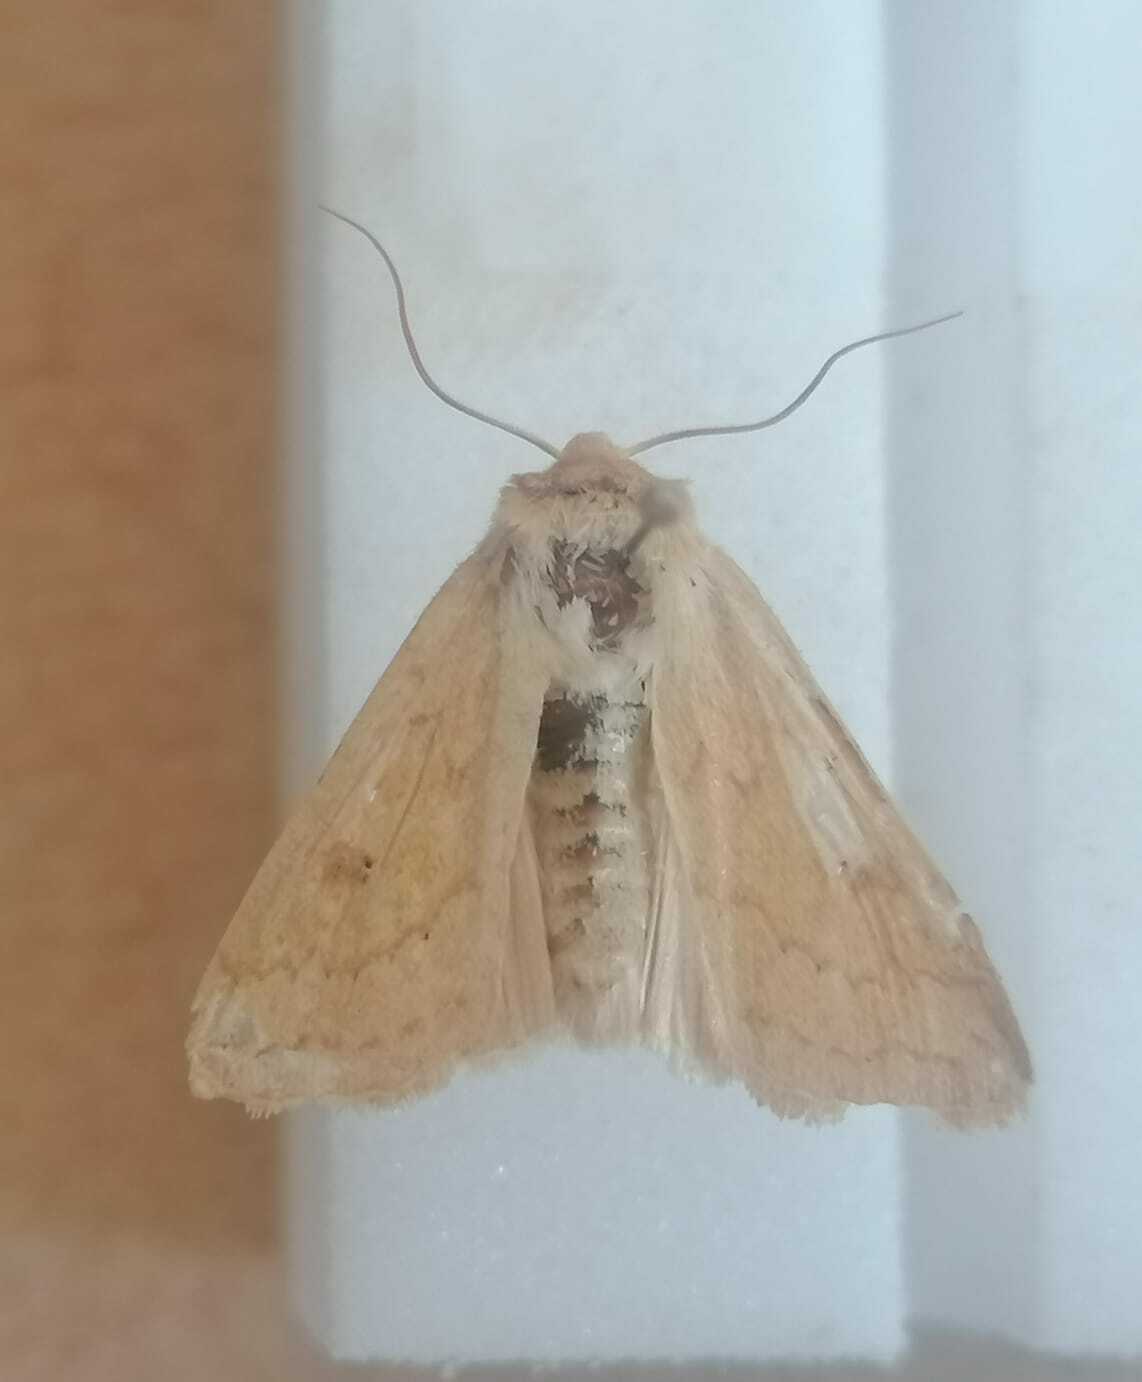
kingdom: Animalia
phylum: Arthropoda
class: Insecta
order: Lepidoptera
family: Noctuidae
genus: Mythimna
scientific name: Mythimna vitellina
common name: Delicate
